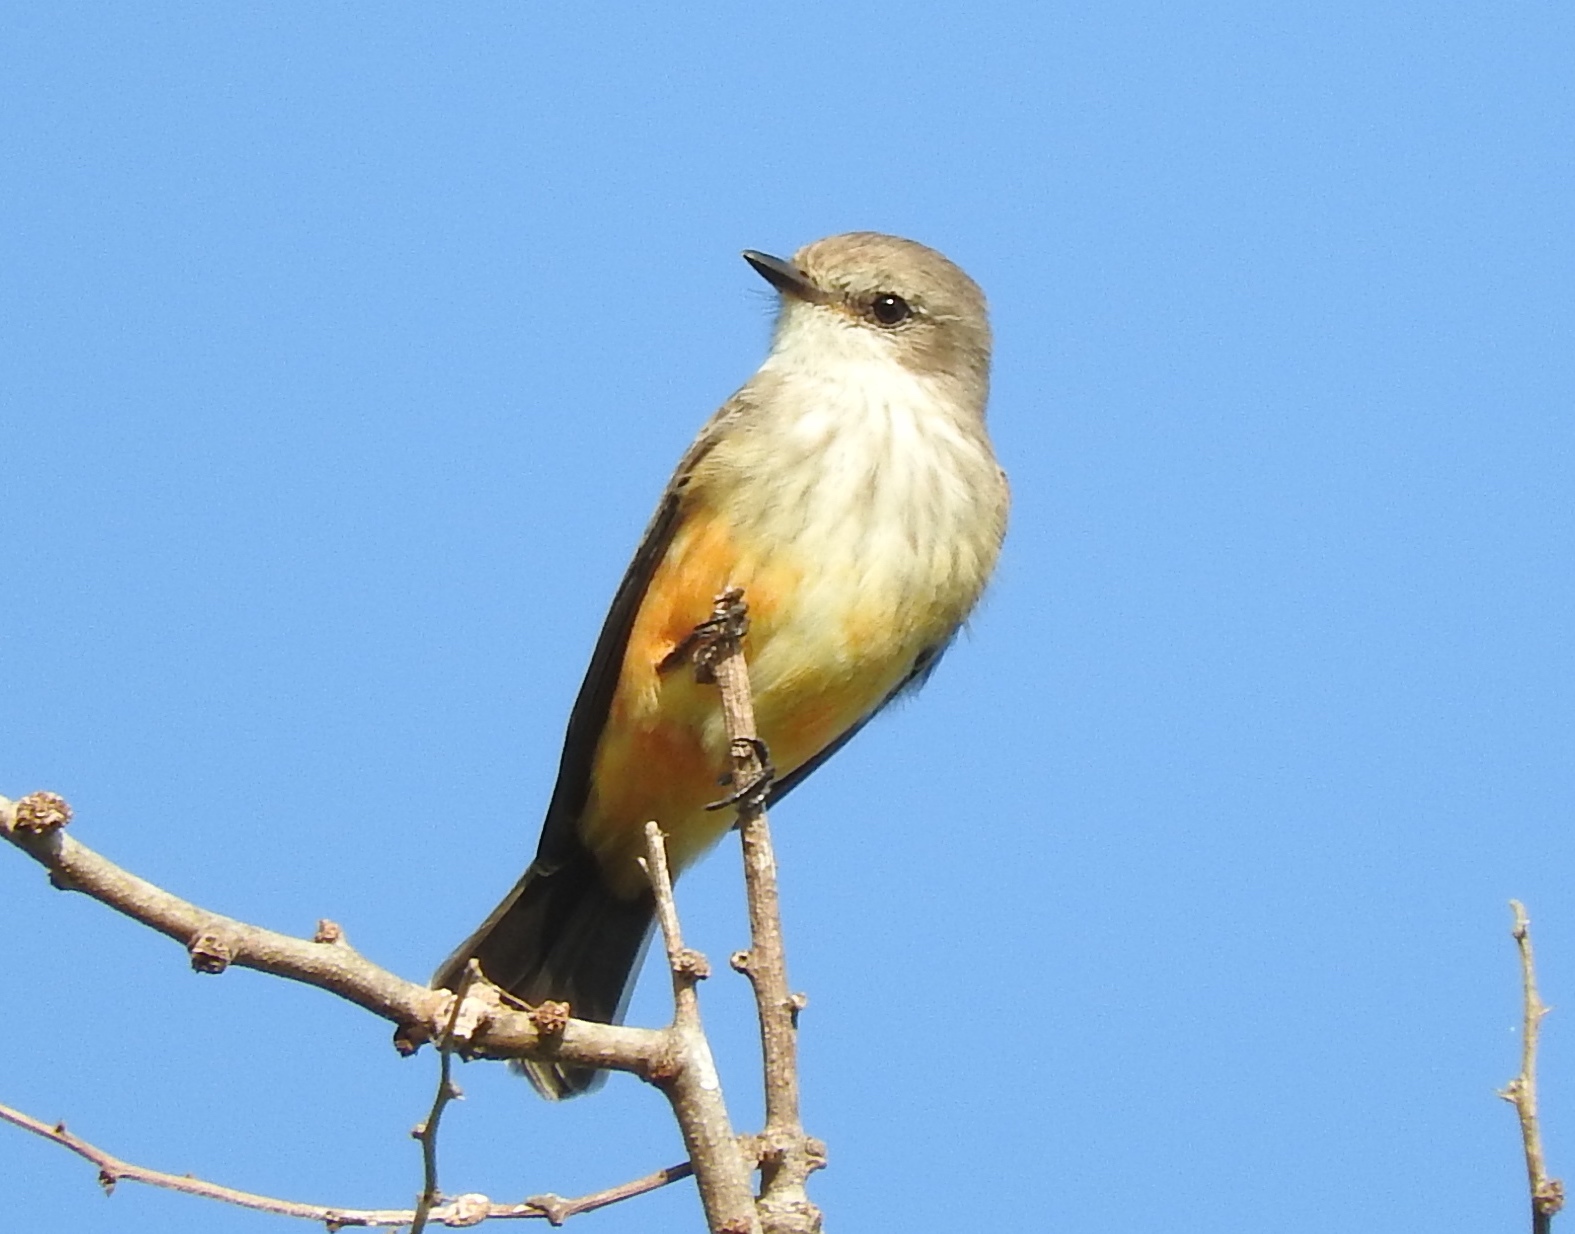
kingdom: Animalia
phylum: Chordata
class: Aves
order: Passeriformes
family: Tyrannidae
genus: Pyrocephalus
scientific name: Pyrocephalus rubinus
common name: Vermilion flycatcher
